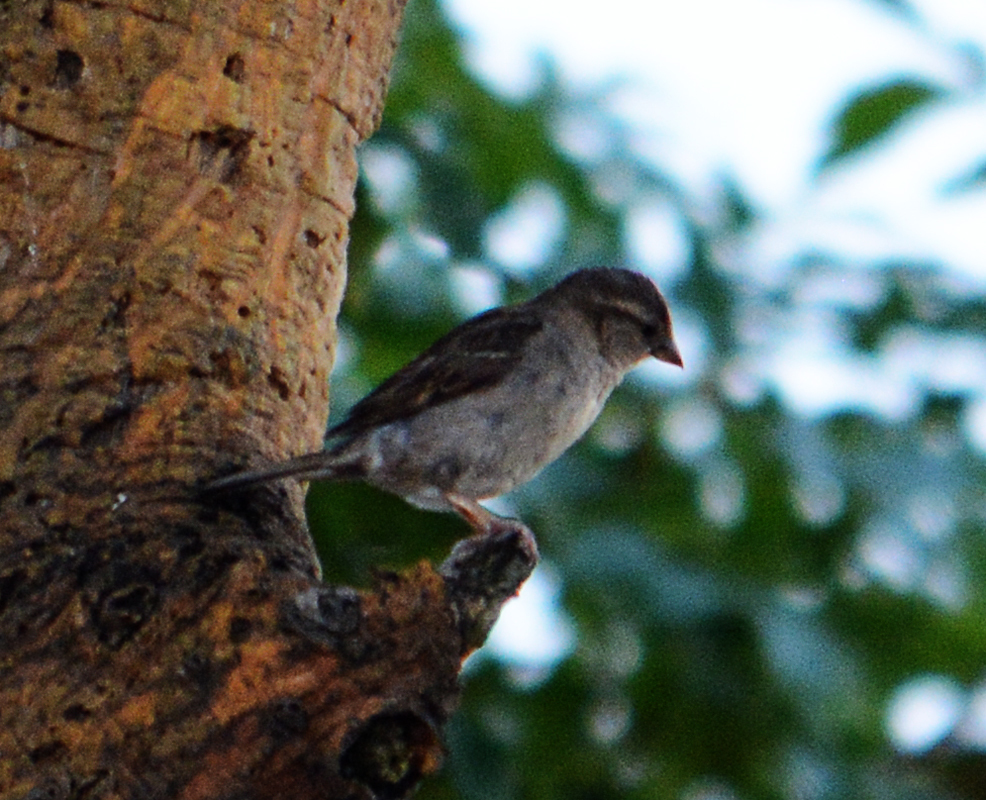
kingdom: Animalia
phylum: Chordata
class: Aves
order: Passeriformes
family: Passeridae
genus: Passer
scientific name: Passer domesticus
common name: House sparrow
